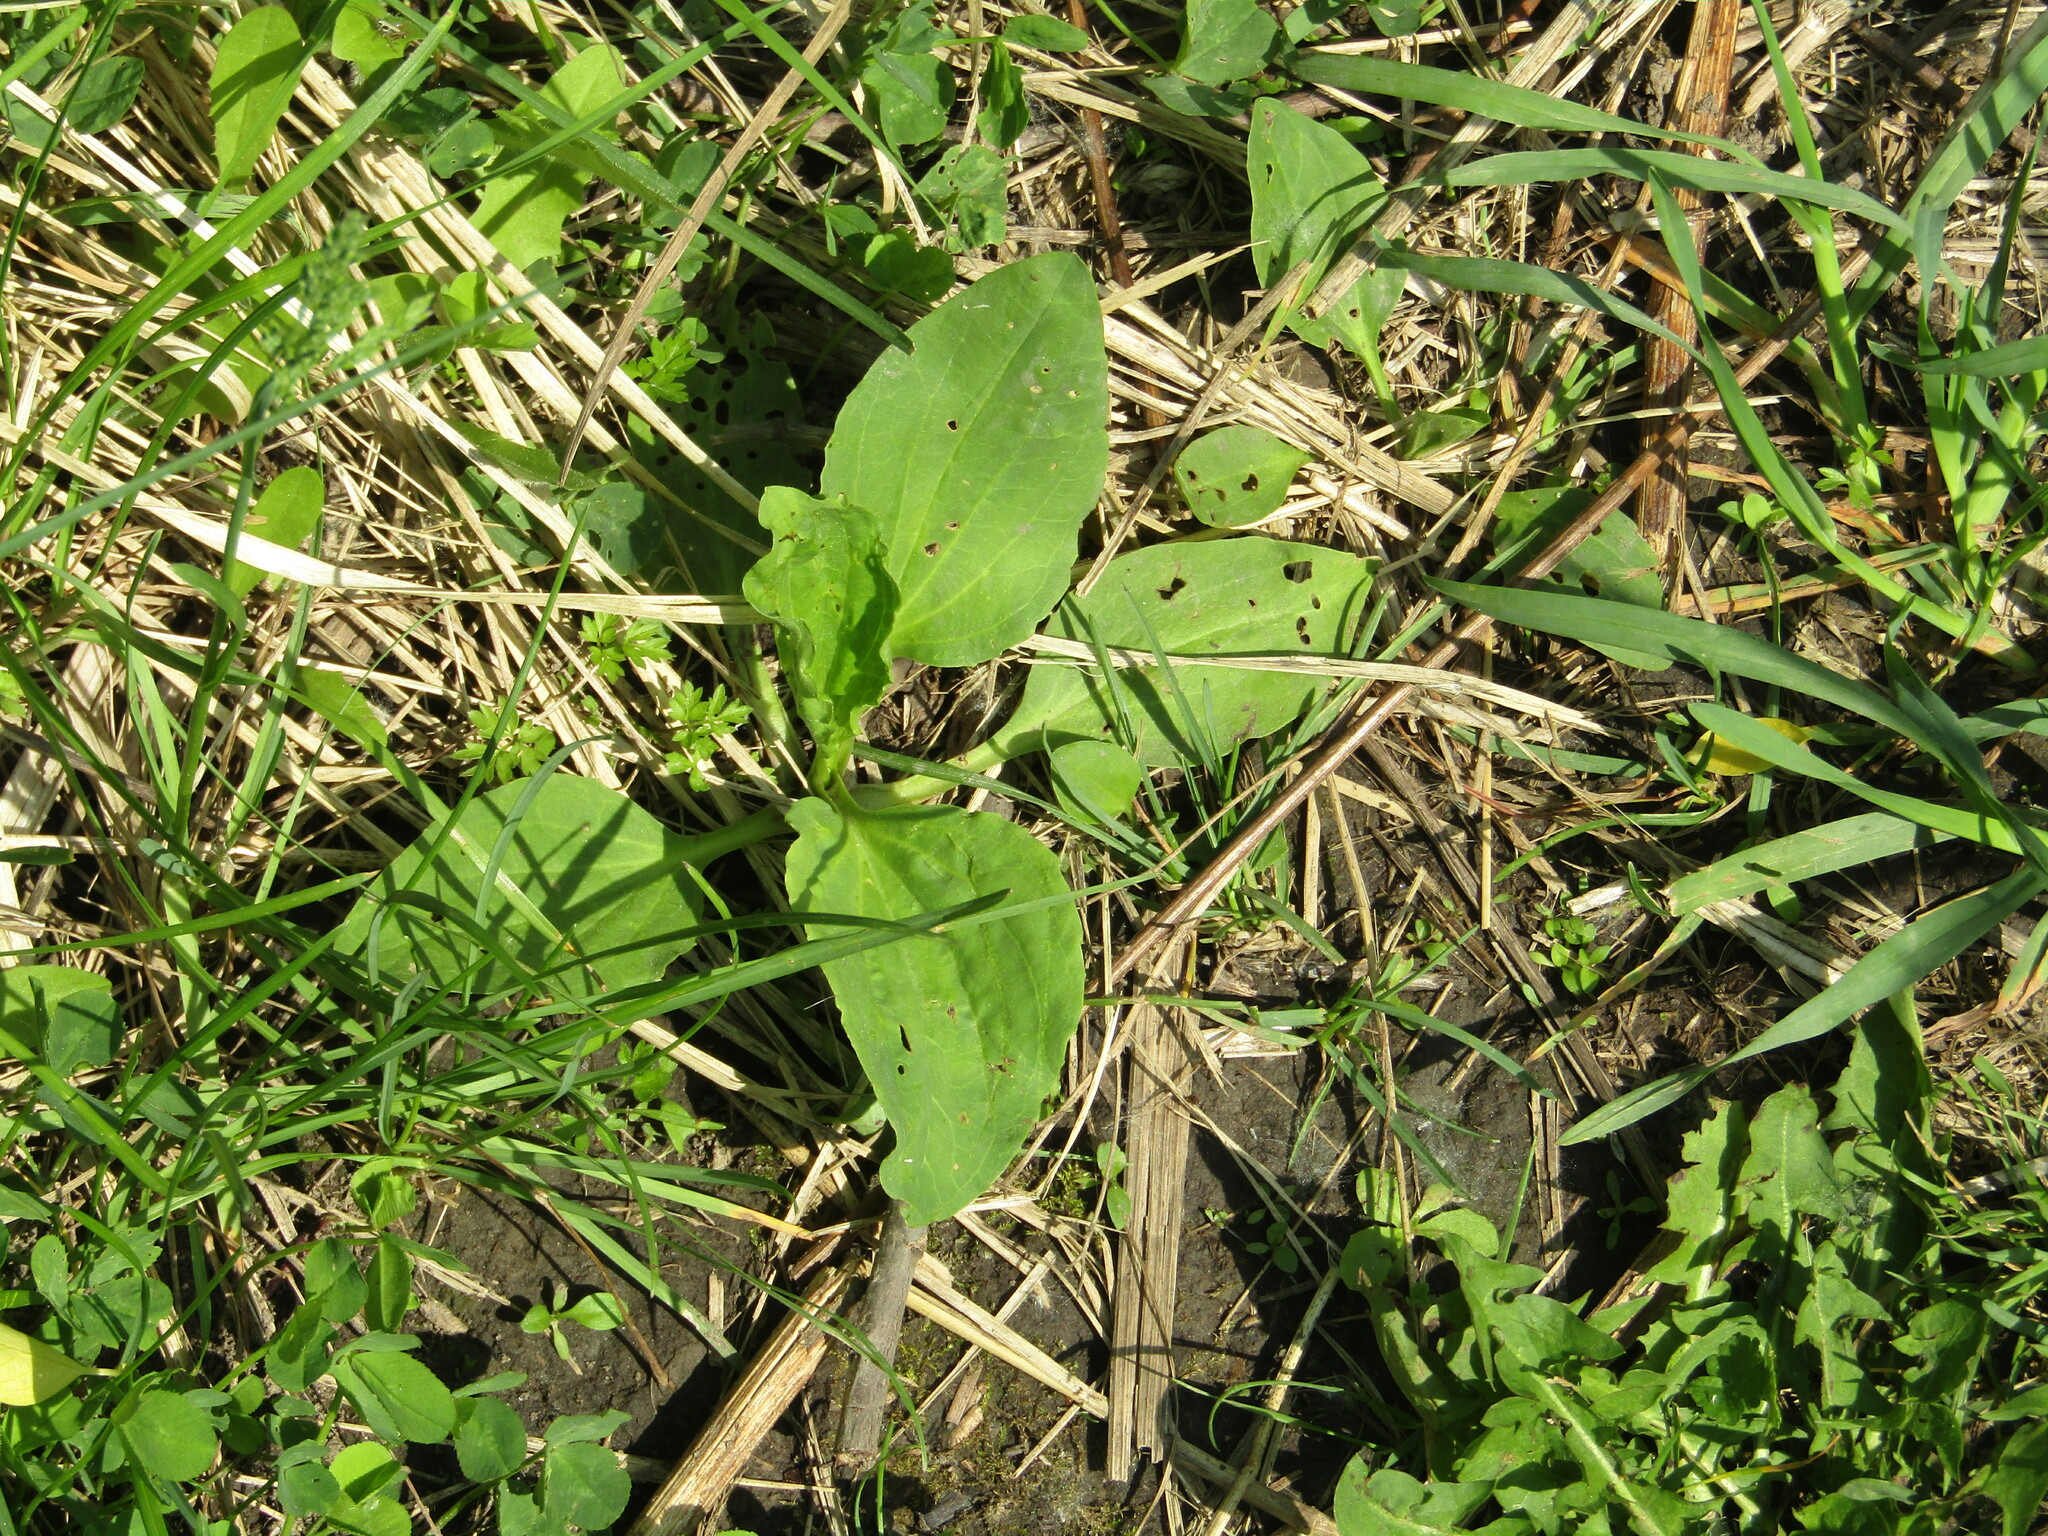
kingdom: Plantae
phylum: Tracheophyta
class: Magnoliopsida
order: Lamiales
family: Plantaginaceae
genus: Plantago
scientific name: Plantago major
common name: Common plantain
